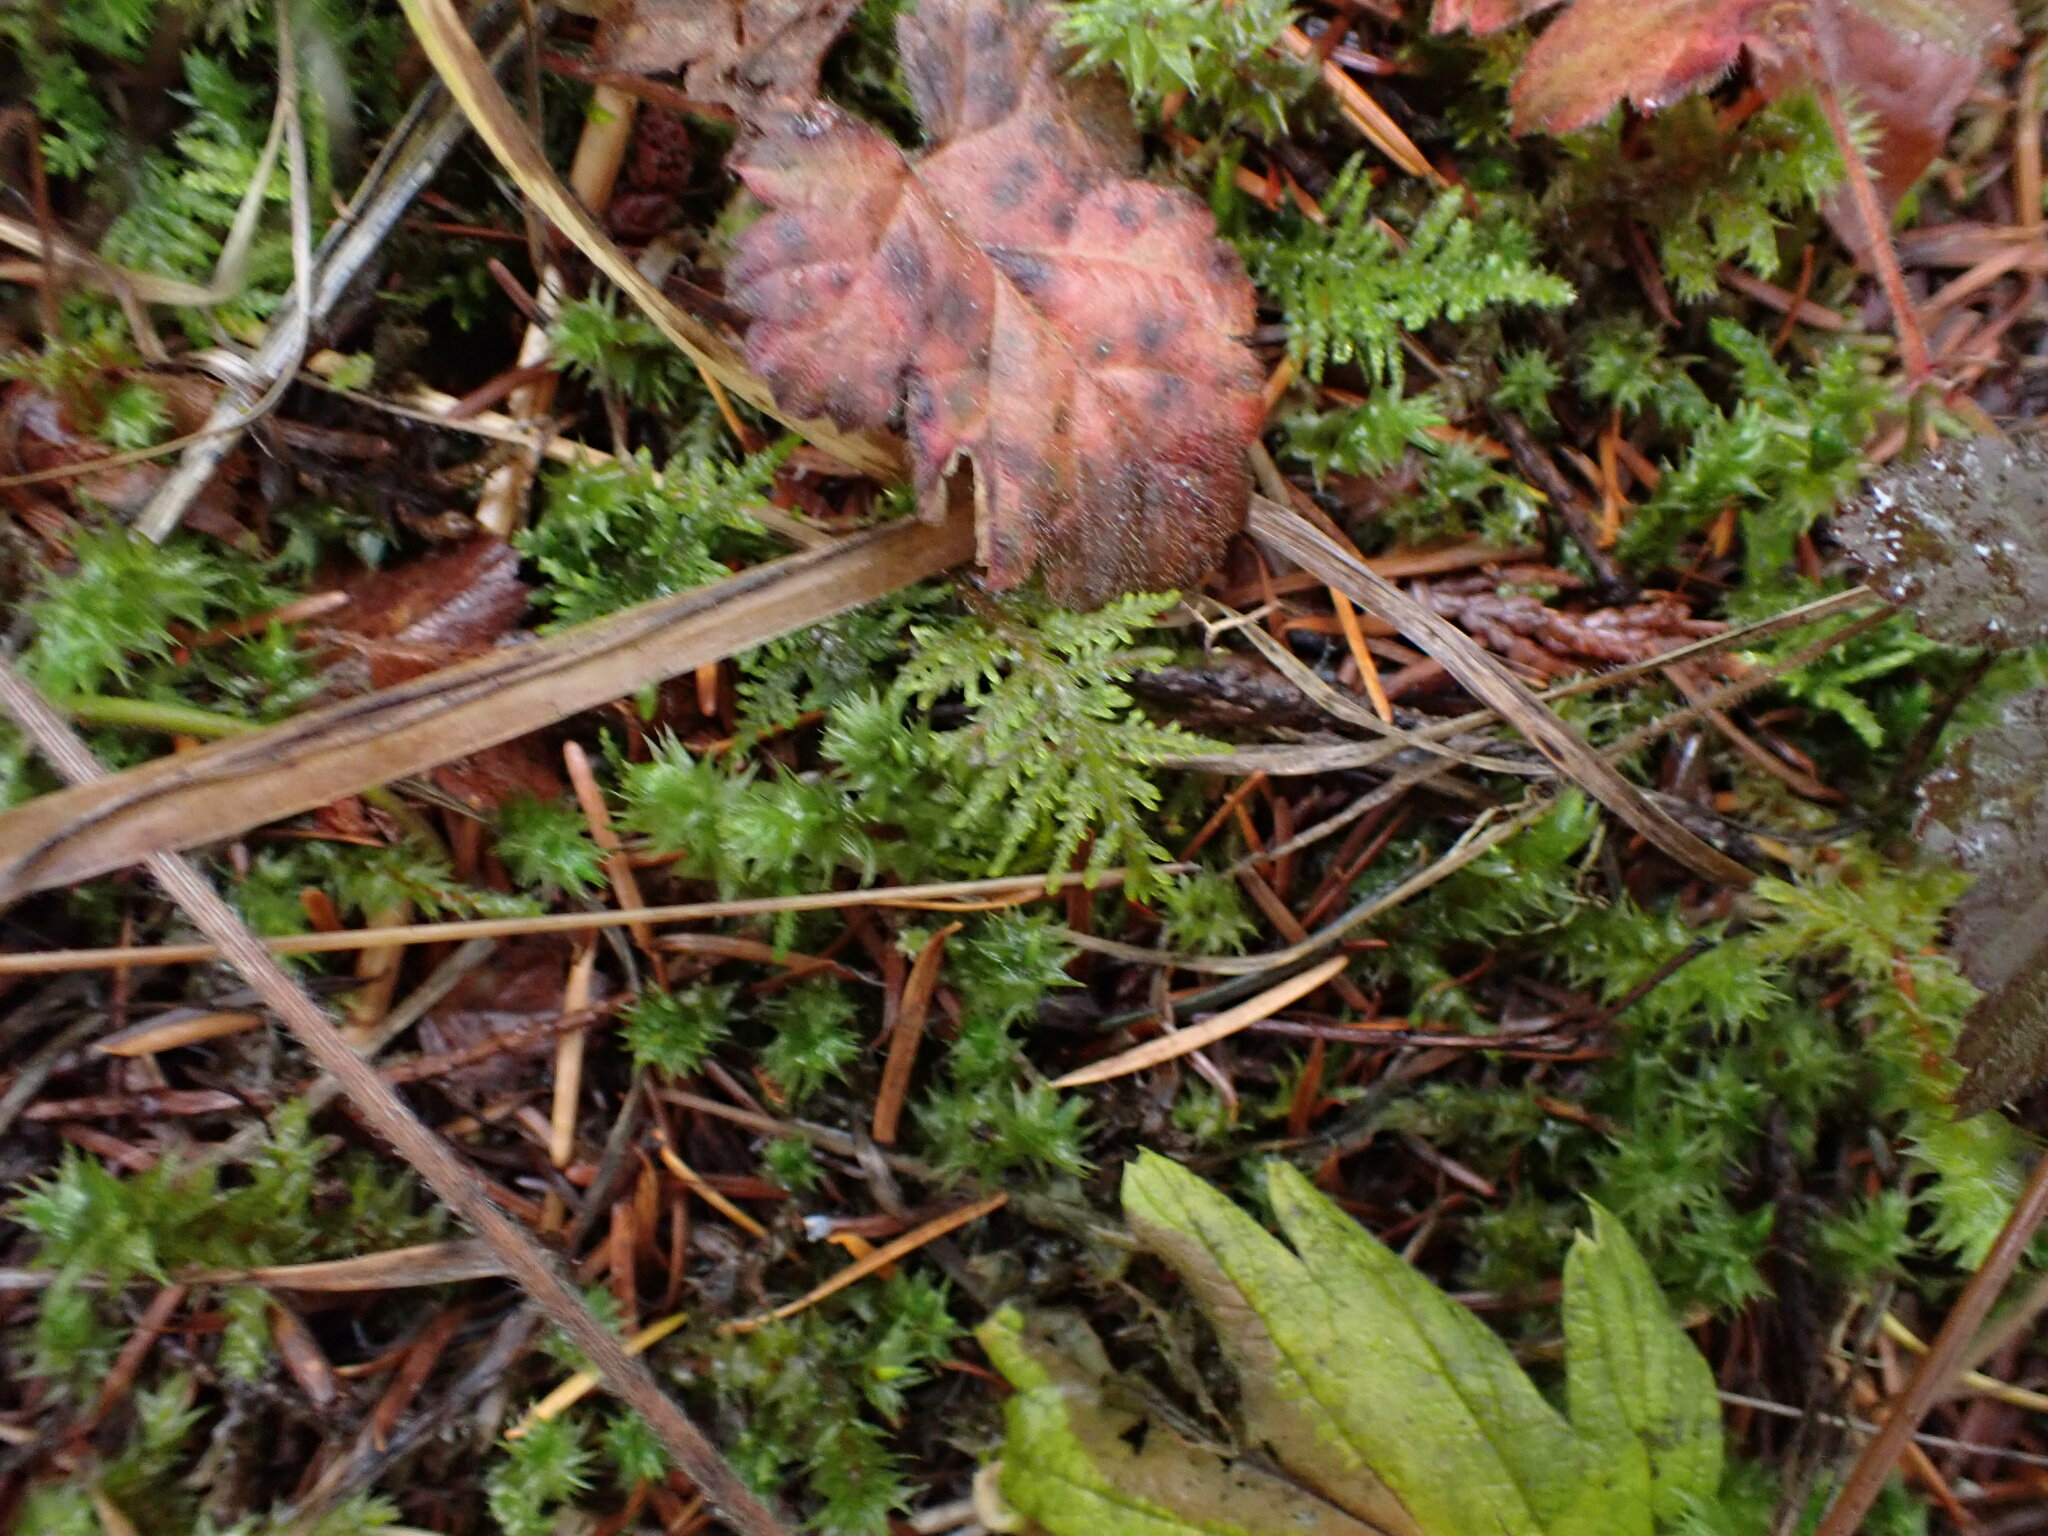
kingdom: Plantae
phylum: Bryophyta
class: Bryopsida
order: Hypnales
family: Hylocomiaceae
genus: Hylocomium
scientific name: Hylocomium splendens
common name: Stairstep moss
